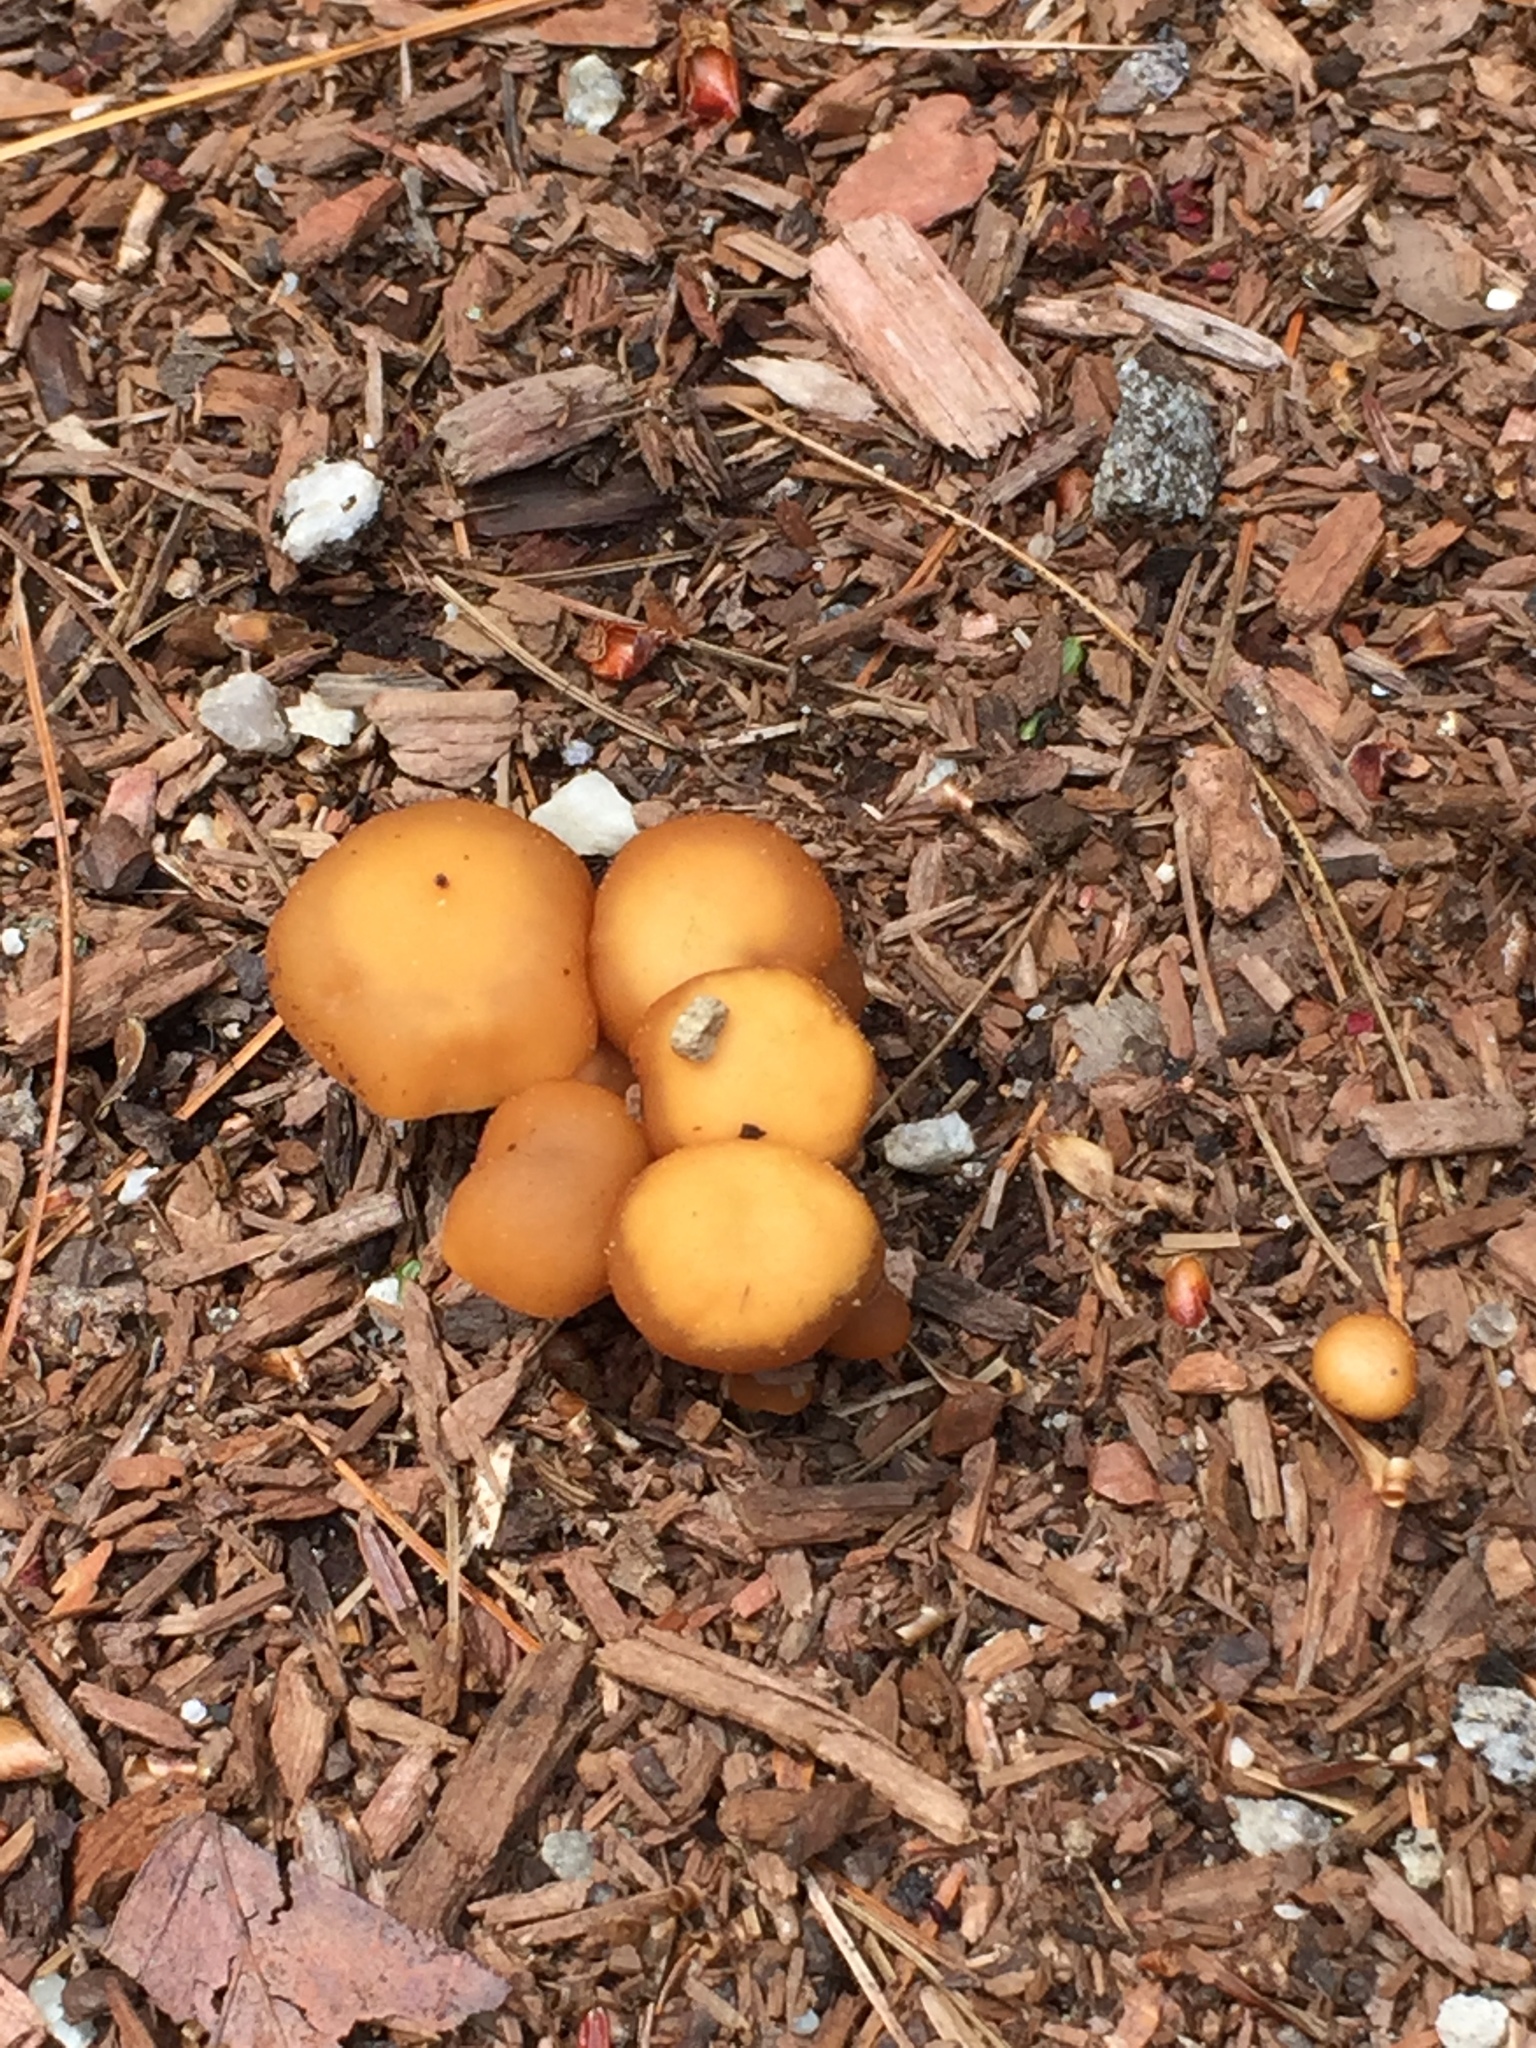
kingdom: Fungi
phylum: Basidiomycota
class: Agaricomycetes
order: Agaricales
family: Strophariaceae
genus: Agrocybe
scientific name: Agrocybe pediades
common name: Common fieldcap
